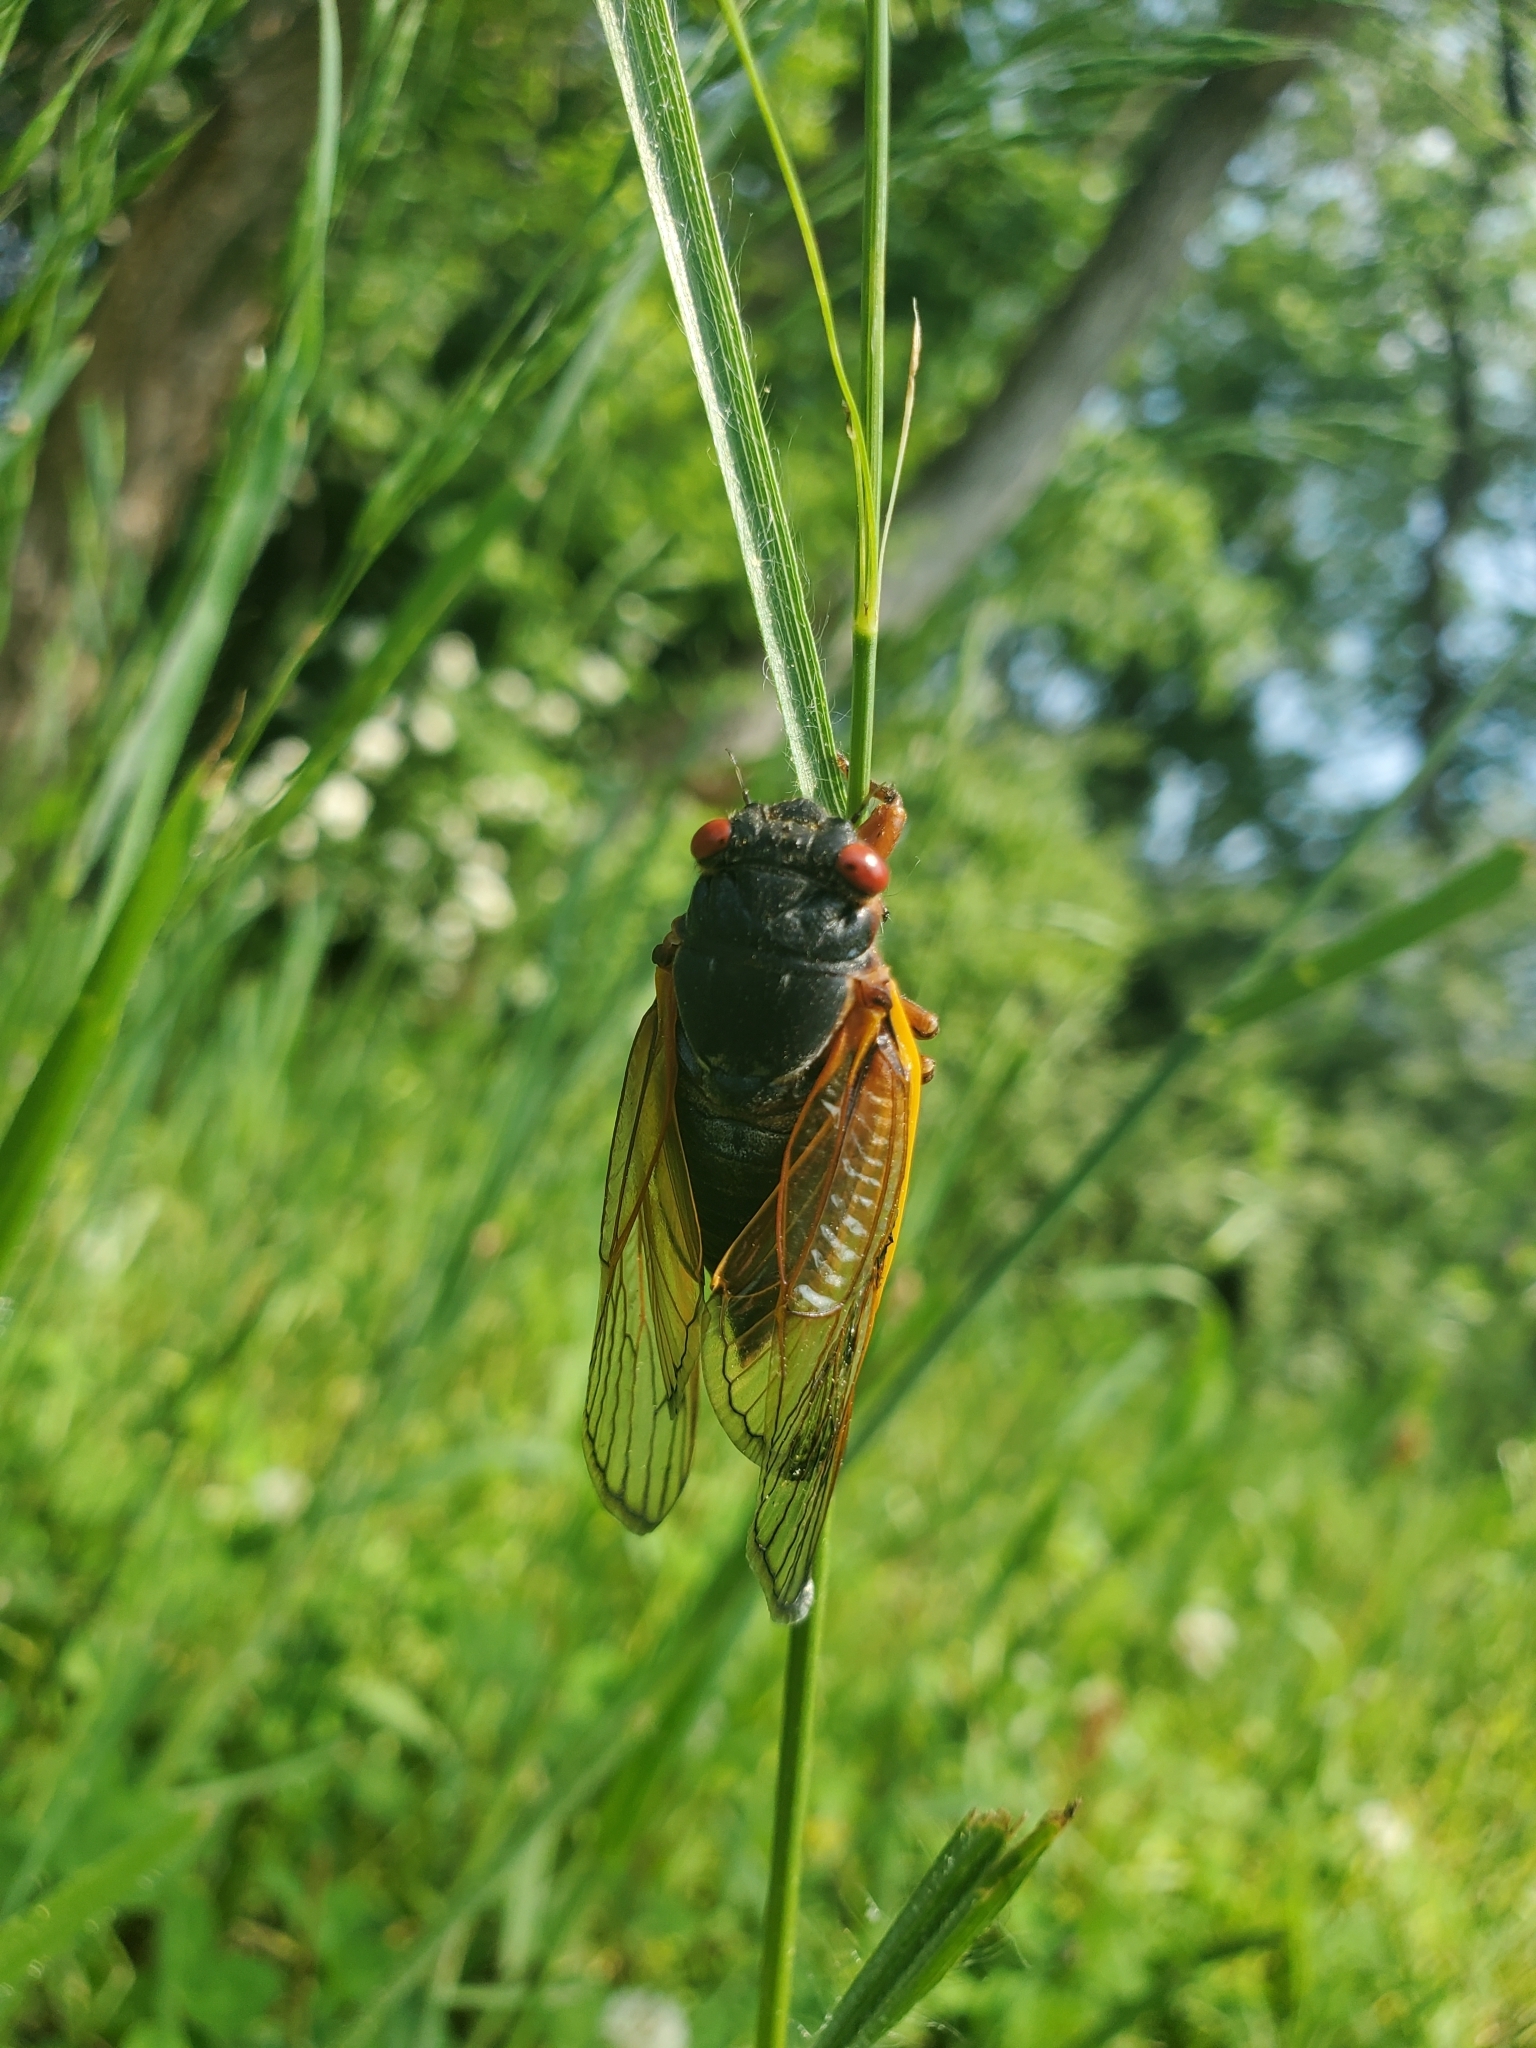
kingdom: Animalia
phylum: Arthropoda
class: Insecta
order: Hemiptera
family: Cicadidae
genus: Magicicada
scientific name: Magicicada septendecim
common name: Periodical cicada
